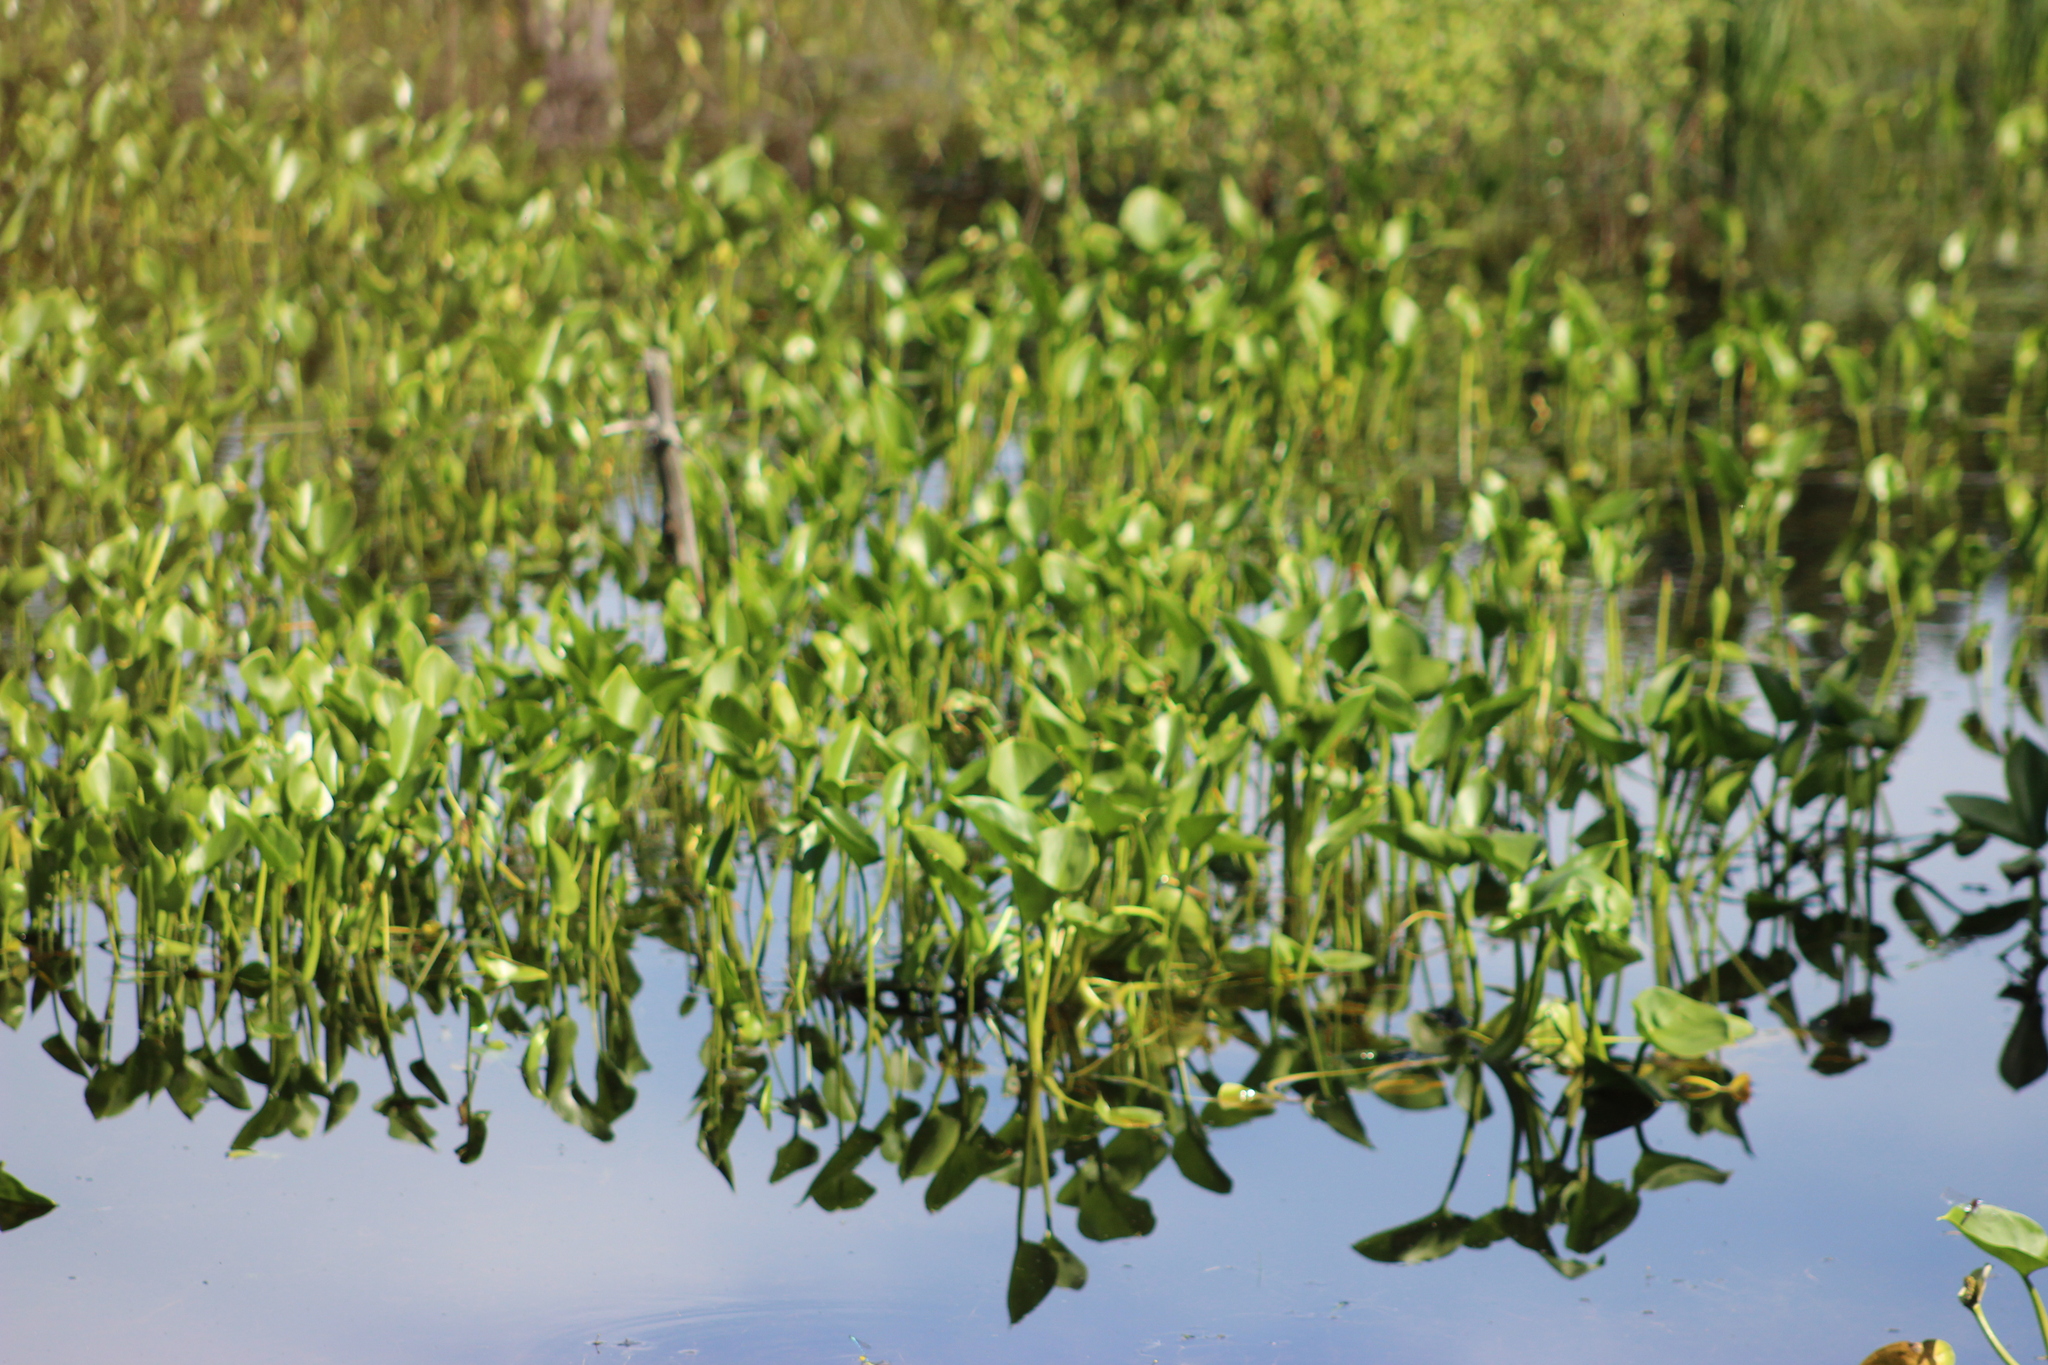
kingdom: Plantae
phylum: Tracheophyta
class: Liliopsida
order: Alismatales
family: Araceae
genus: Calla
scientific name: Calla palustris
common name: Bog arum
